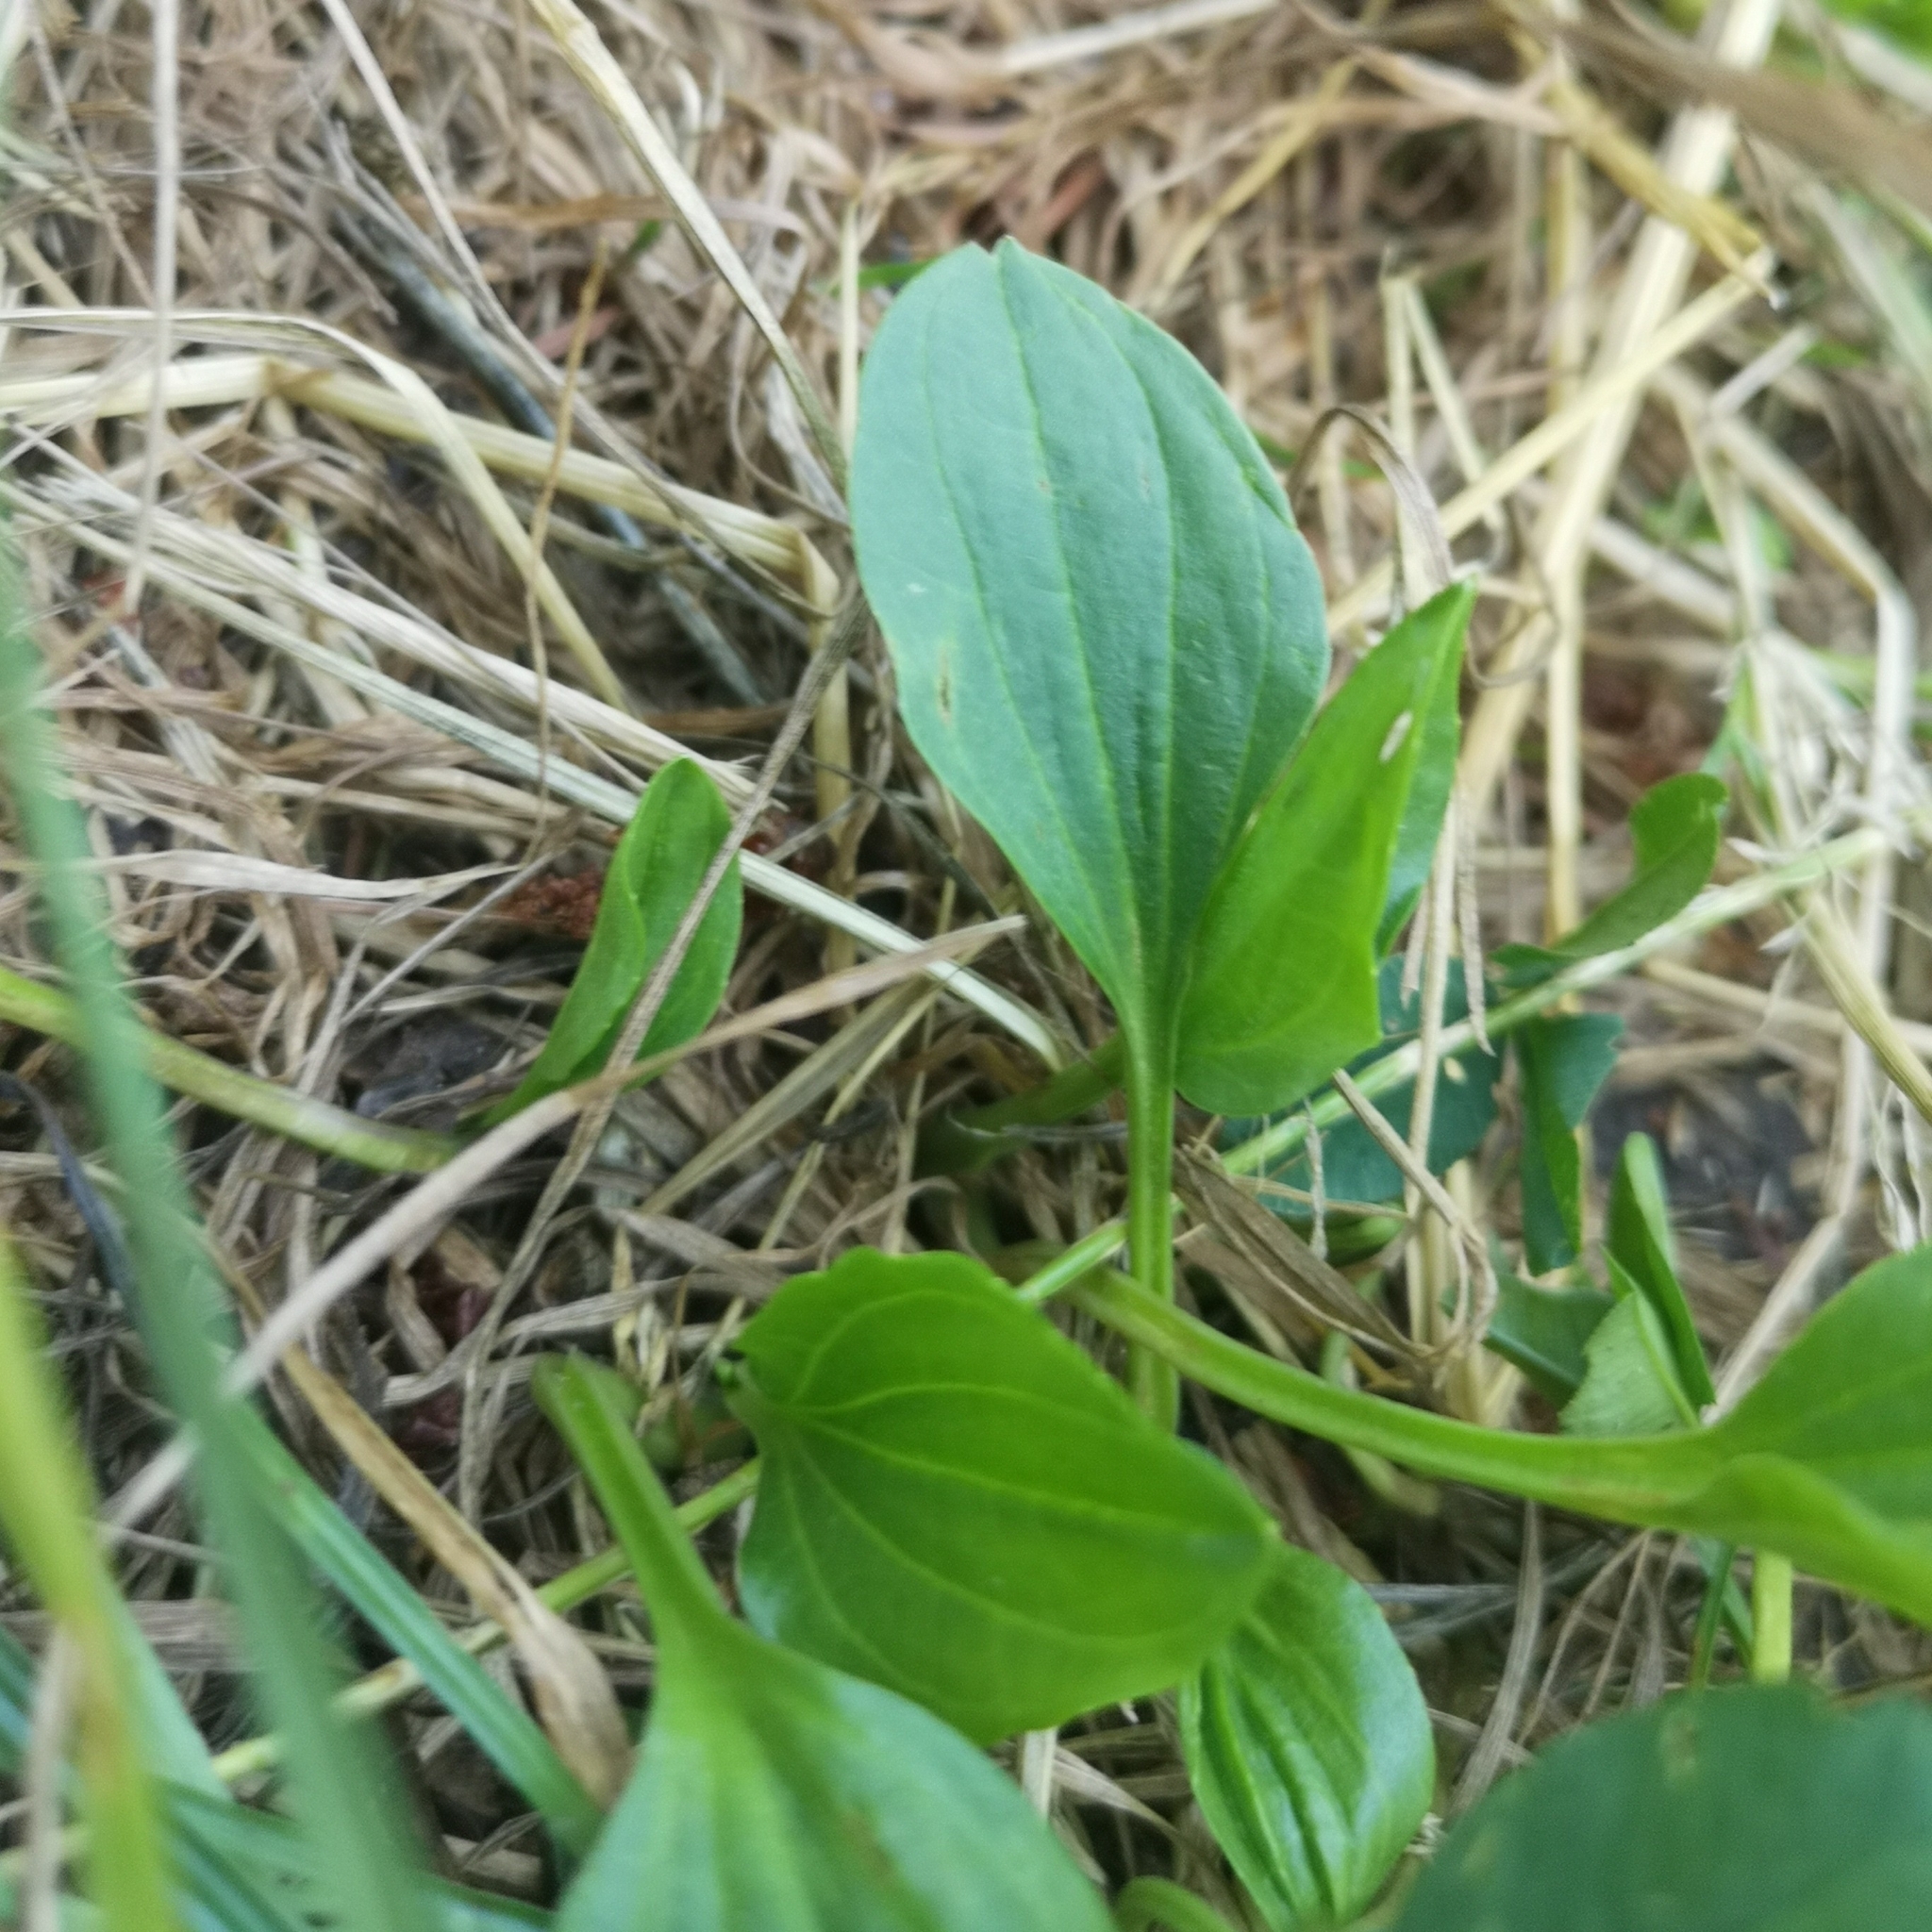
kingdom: Plantae
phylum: Tracheophyta
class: Magnoliopsida
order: Lamiales
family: Plantaginaceae
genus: Plantago
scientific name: Plantago major
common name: Common plantain
